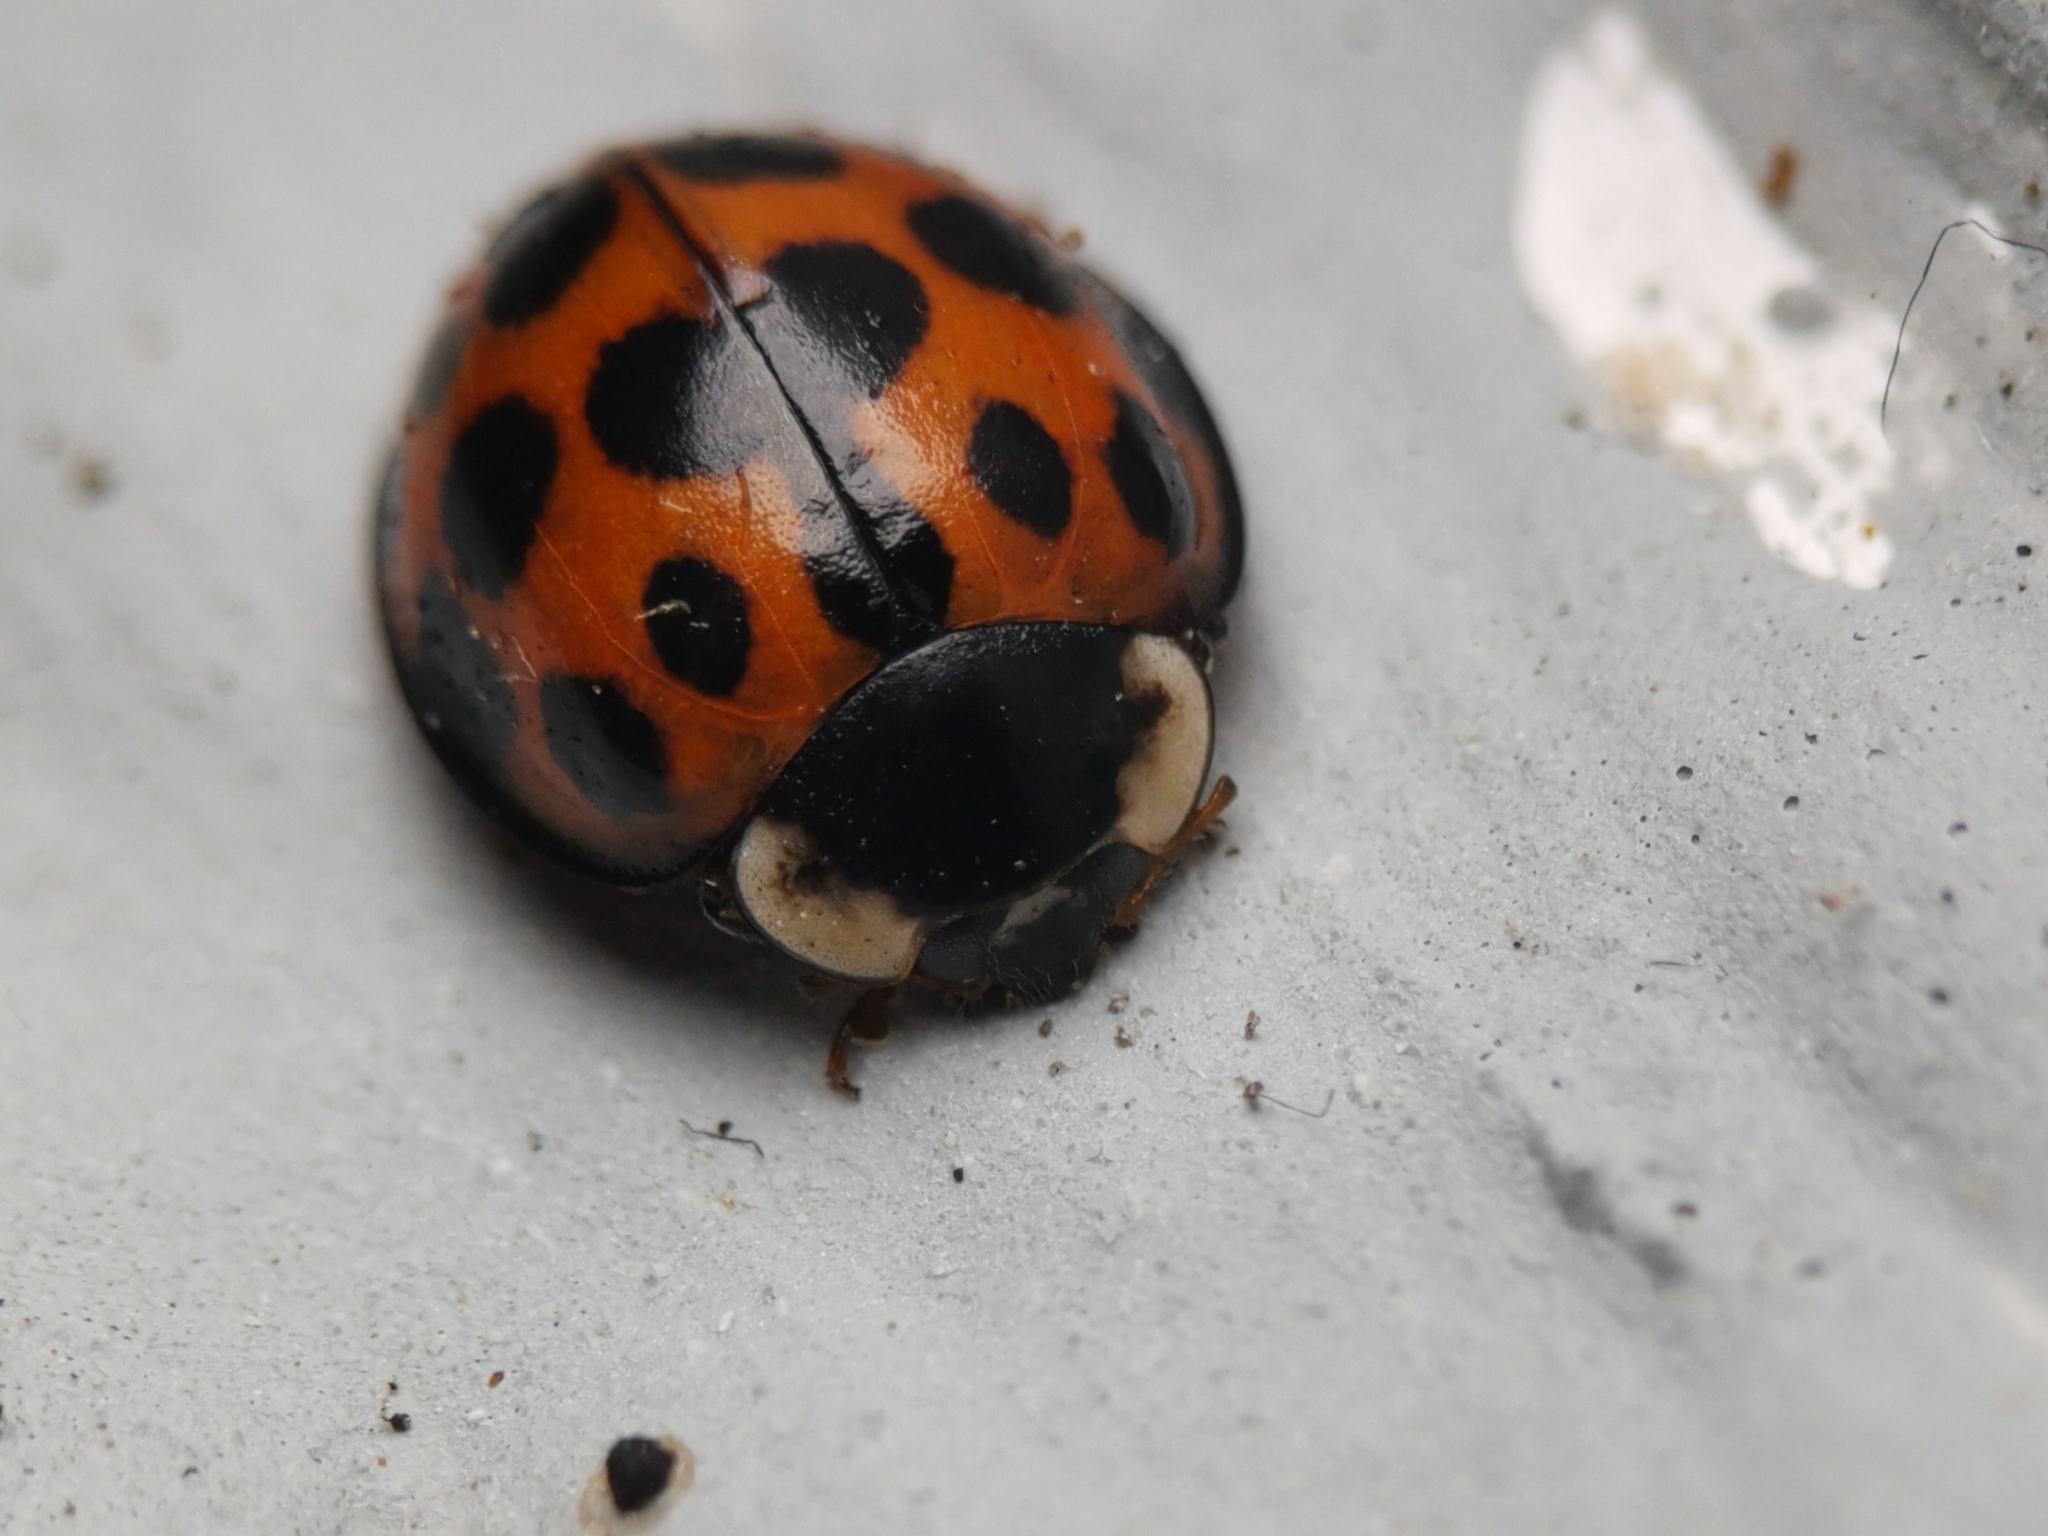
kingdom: Animalia
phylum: Arthropoda
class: Insecta
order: Coleoptera
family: Coccinellidae
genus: Harmonia
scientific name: Harmonia axyridis
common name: Harlequin ladybird
